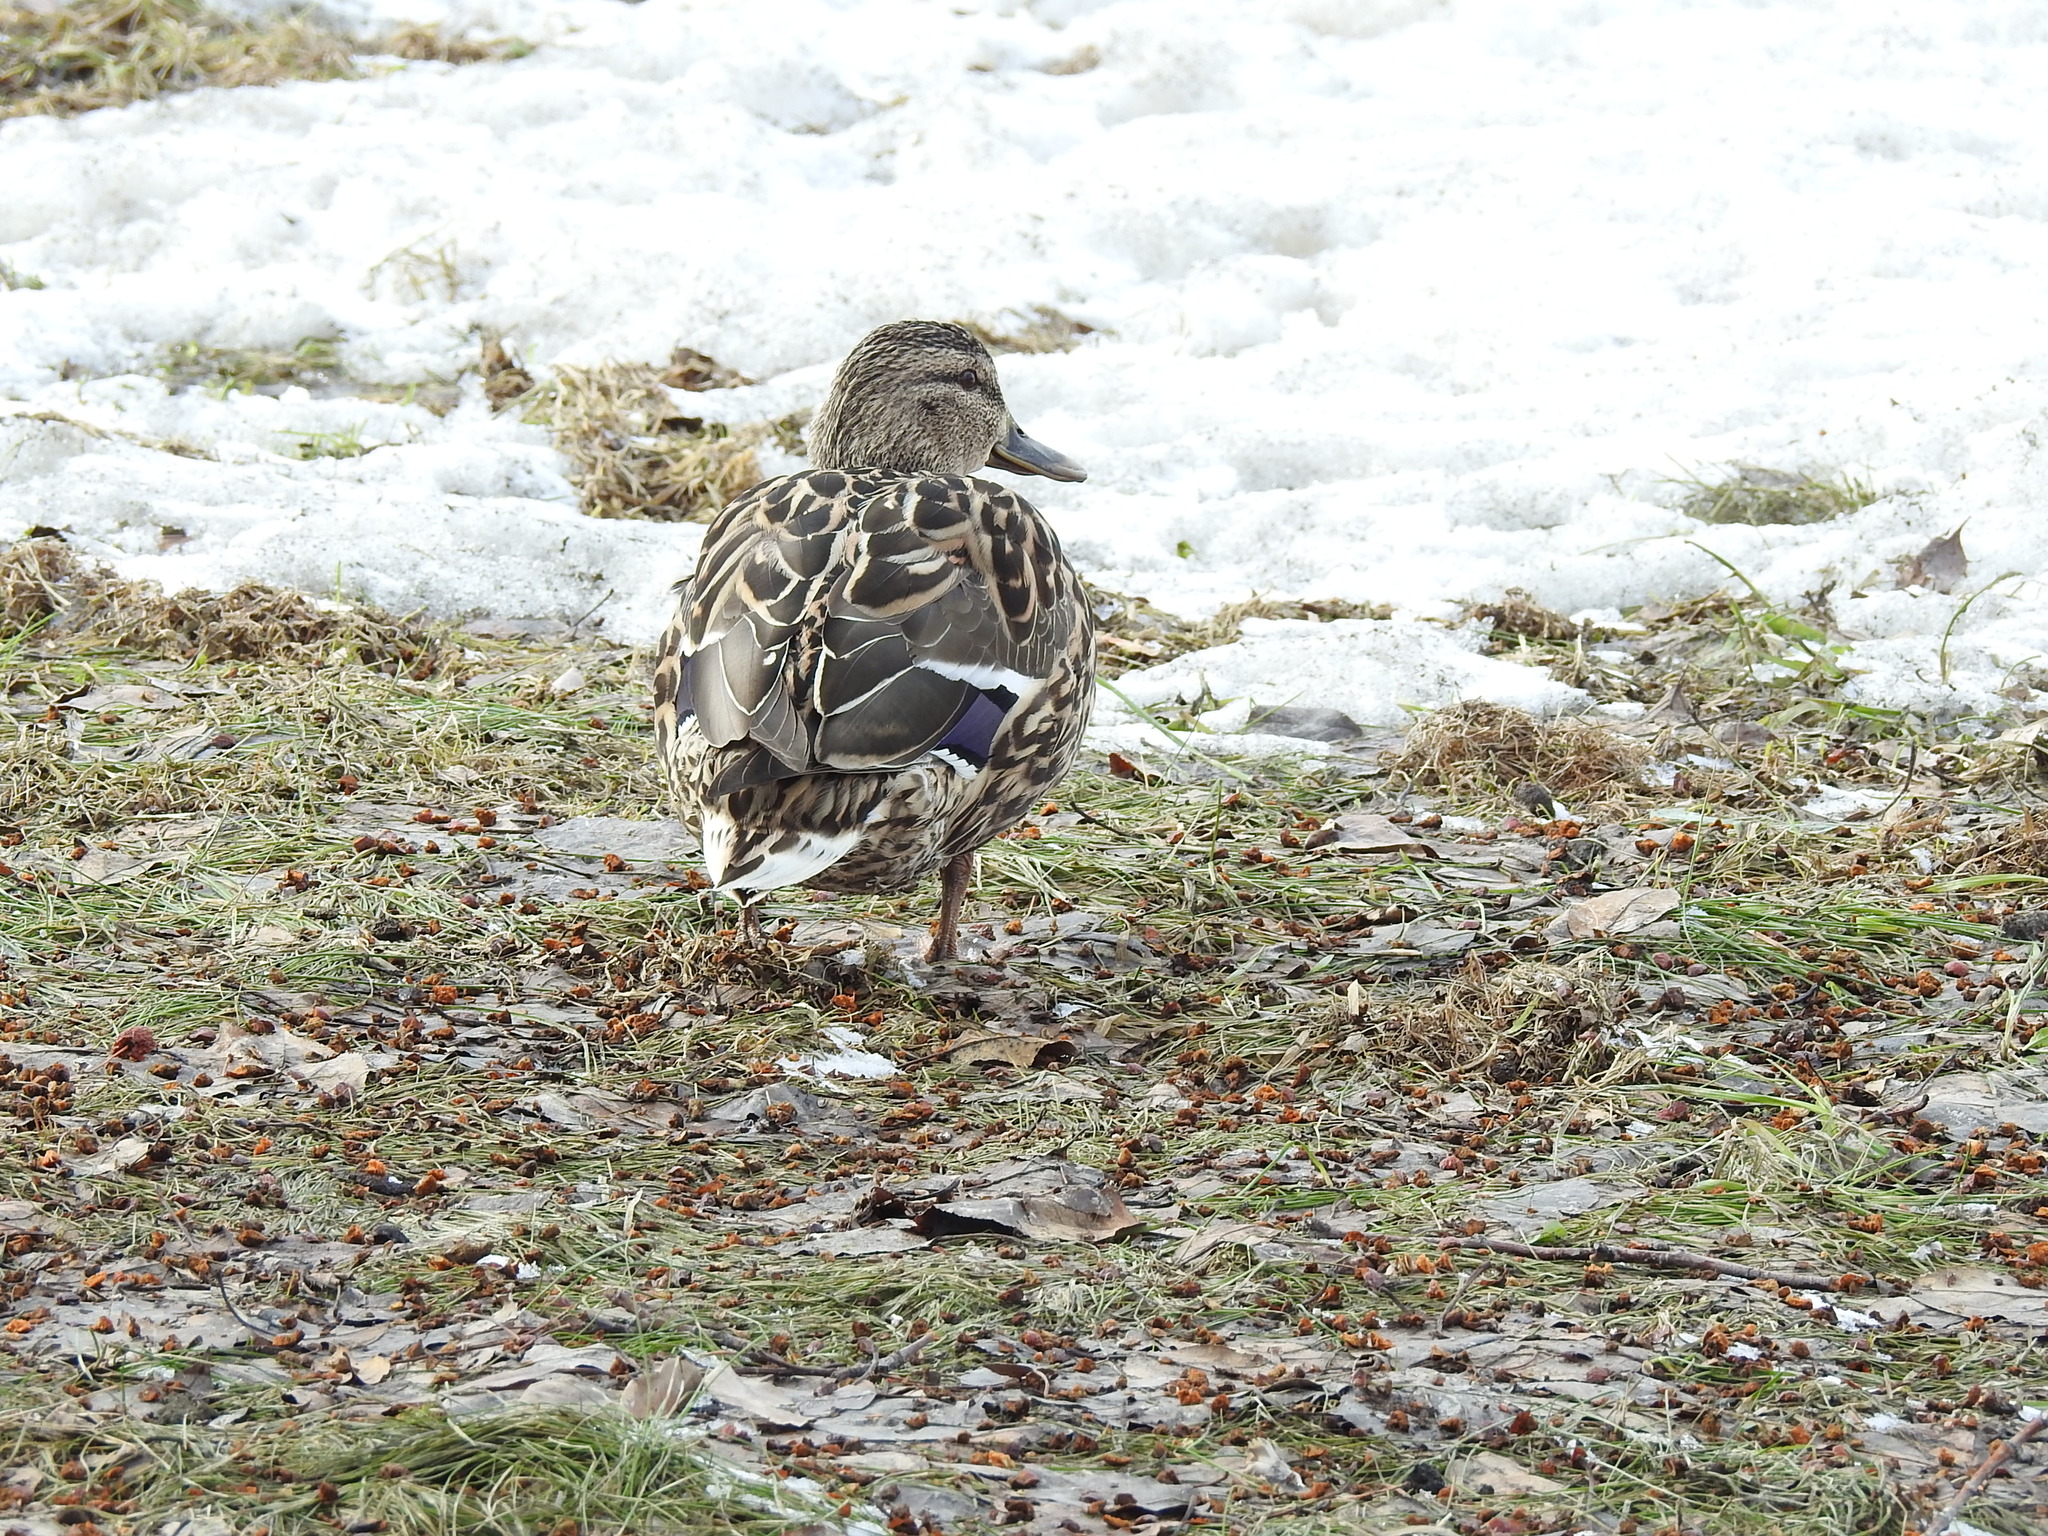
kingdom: Animalia
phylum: Chordata
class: Aves
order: Anseriformes
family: Anatidae
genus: Anas
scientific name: Anas platyrhynchos
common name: Mallard
